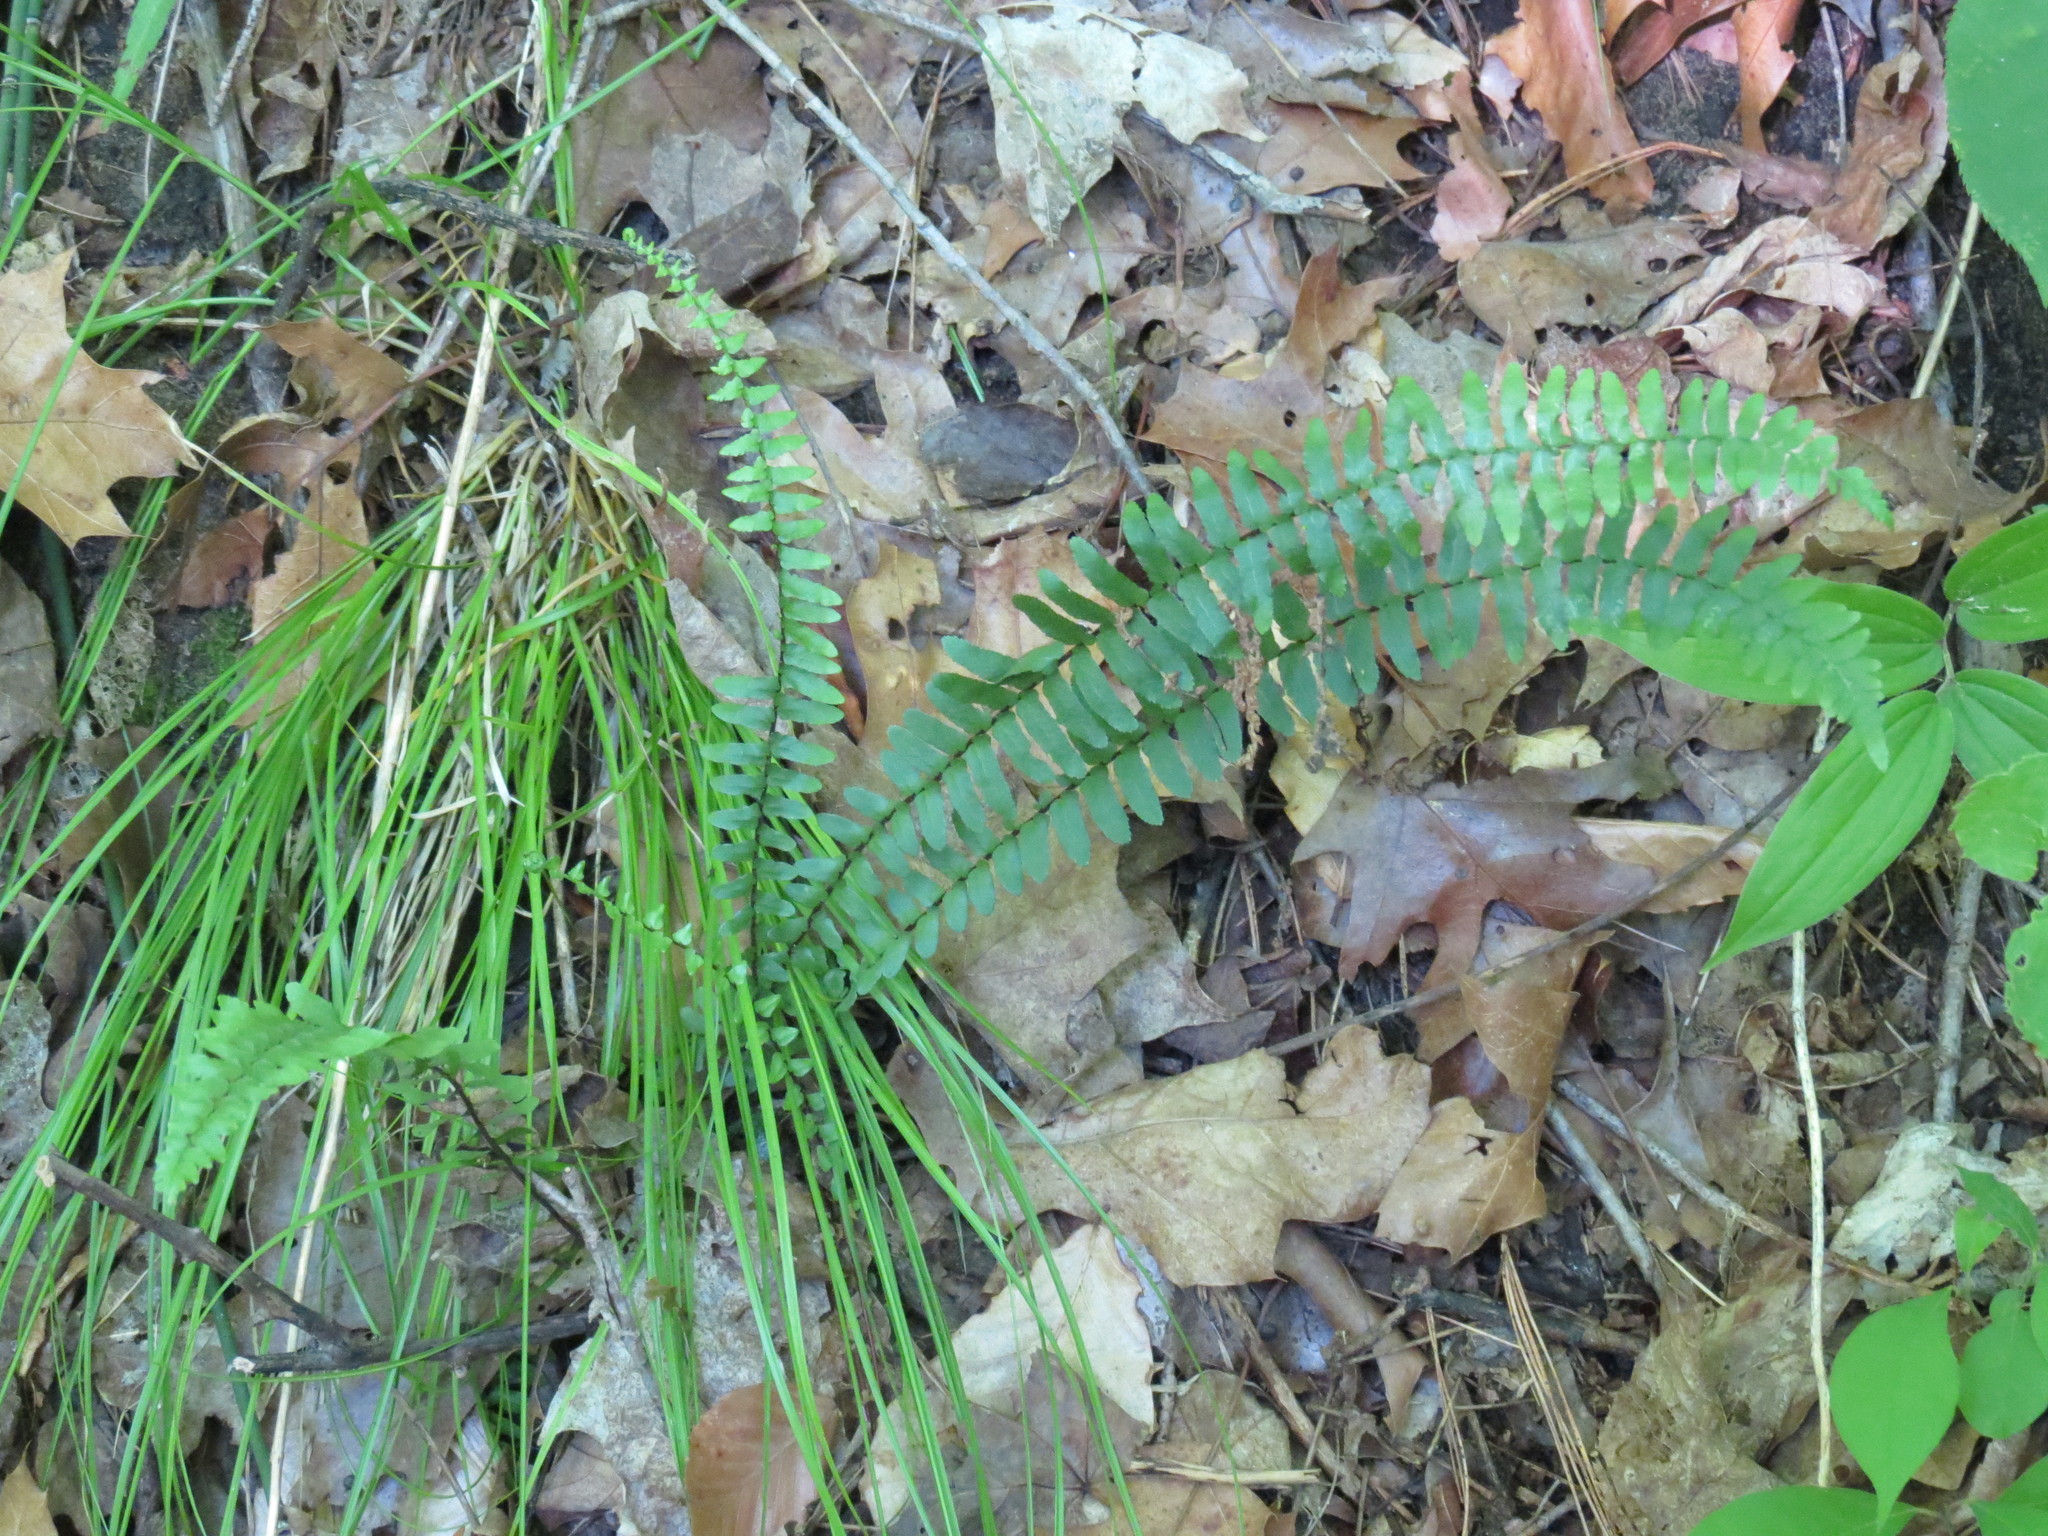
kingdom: Plantae
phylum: Tracheophyta
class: Polypodiopsida
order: Polypodiales
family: Aspleniaceae
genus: Asplenium
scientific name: Asplenium platyneuron
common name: Ebony spleenwort
